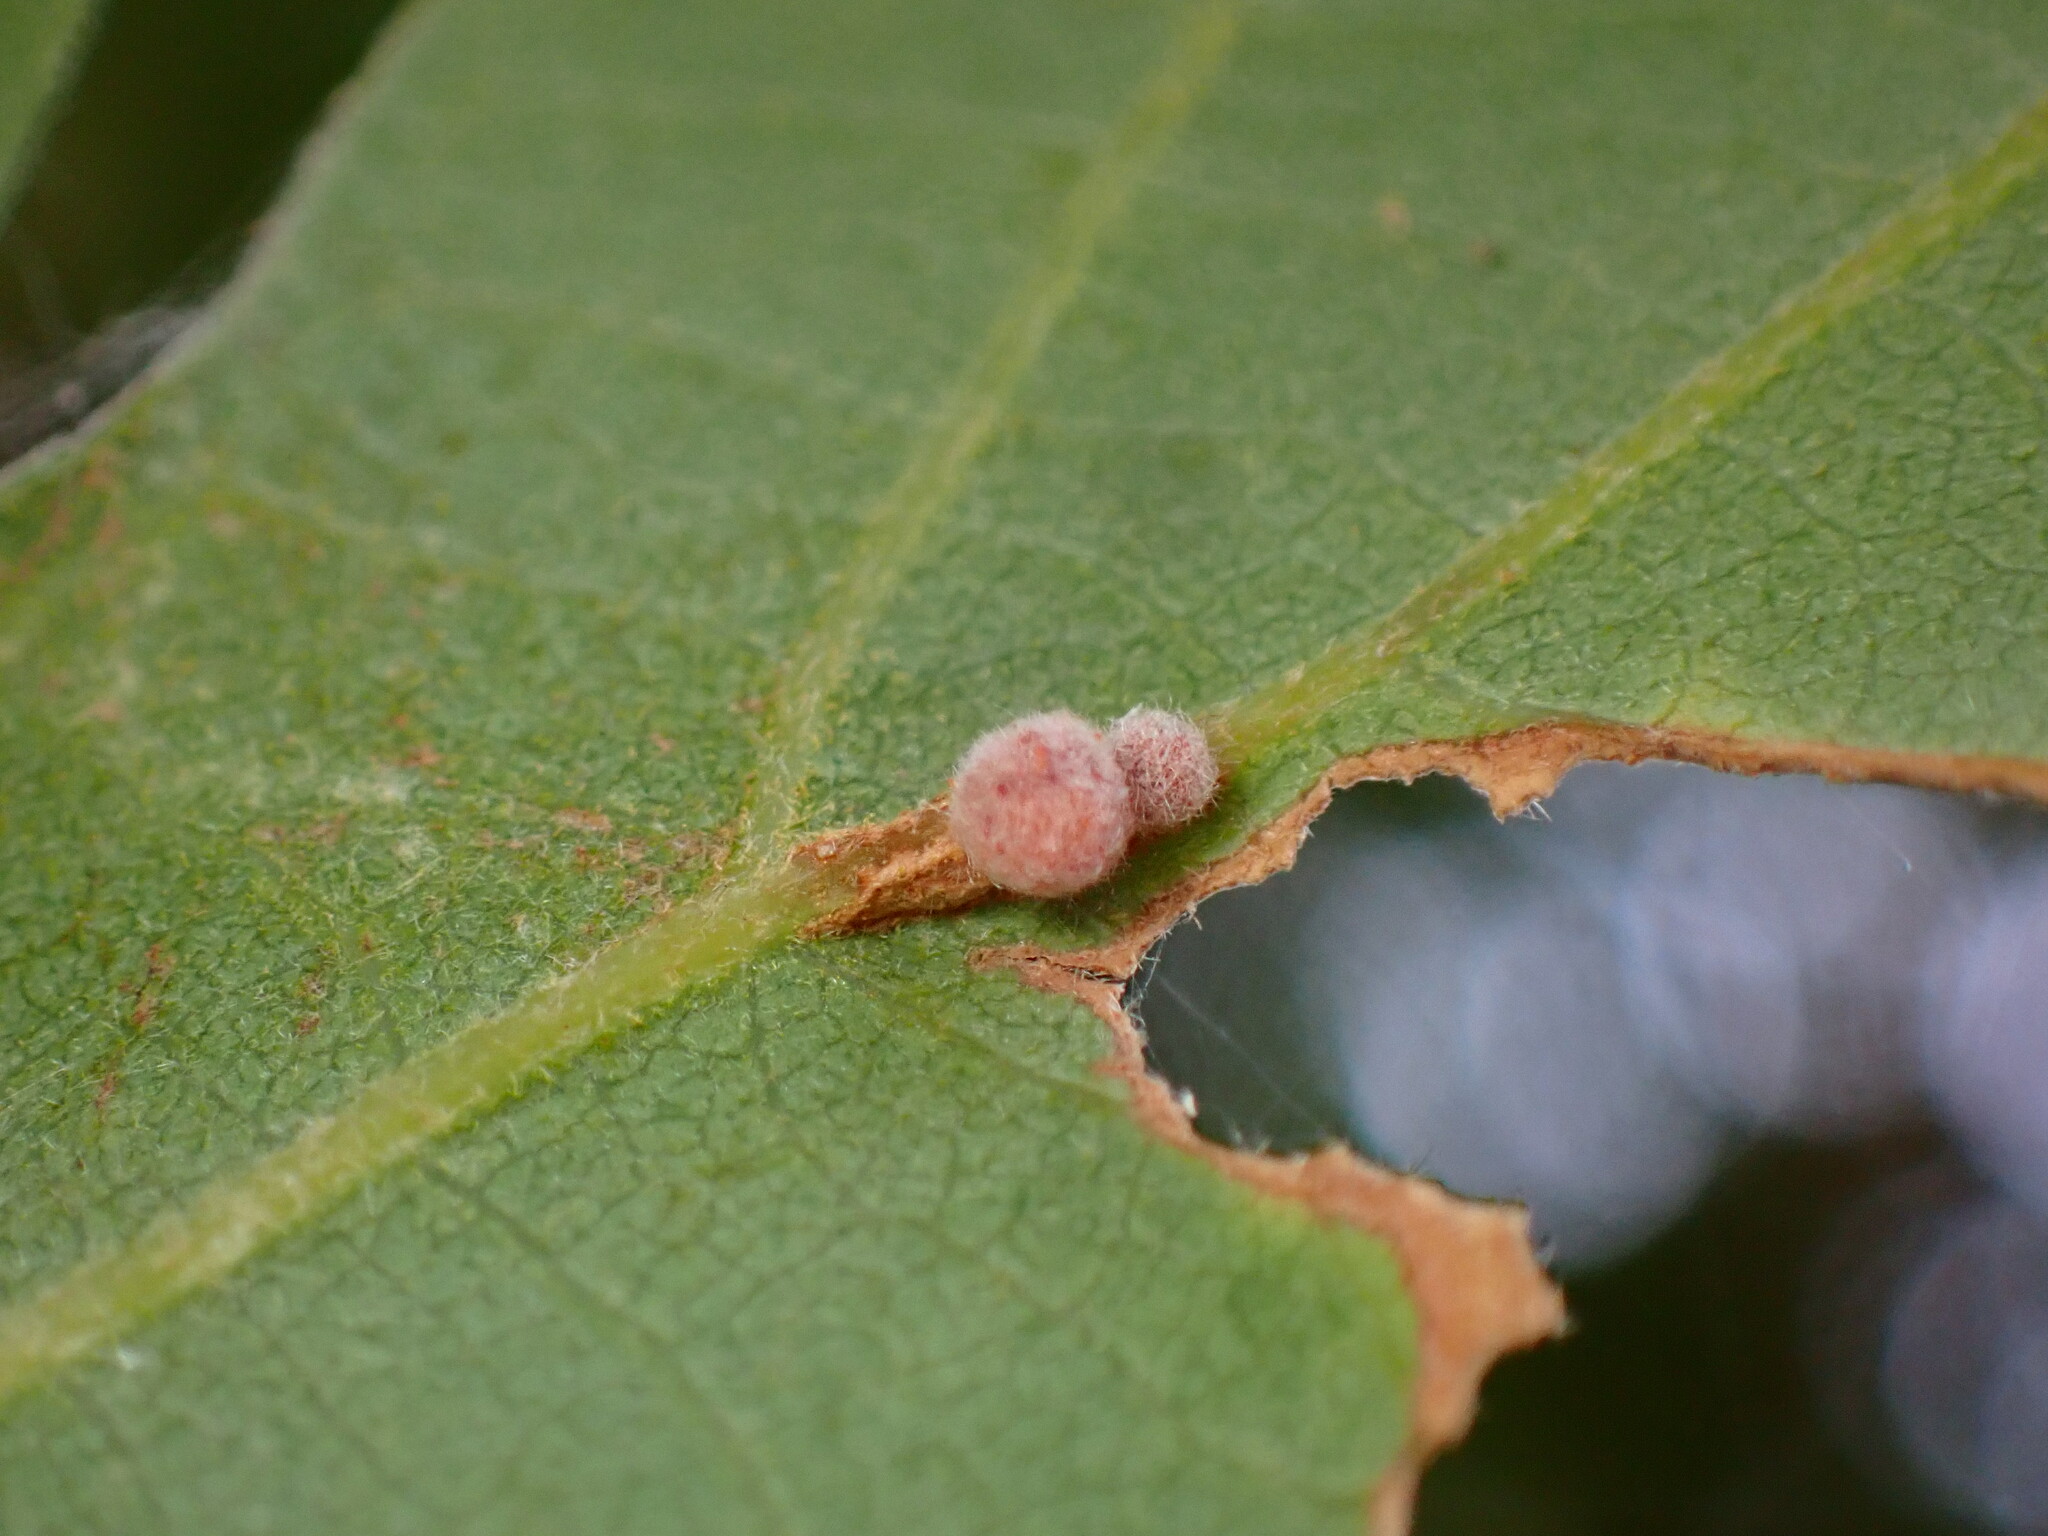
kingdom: Animalia
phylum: Arthropoda
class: Insecta
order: Hymenoptera
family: Cynipidae
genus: Andricus
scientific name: Andricus
